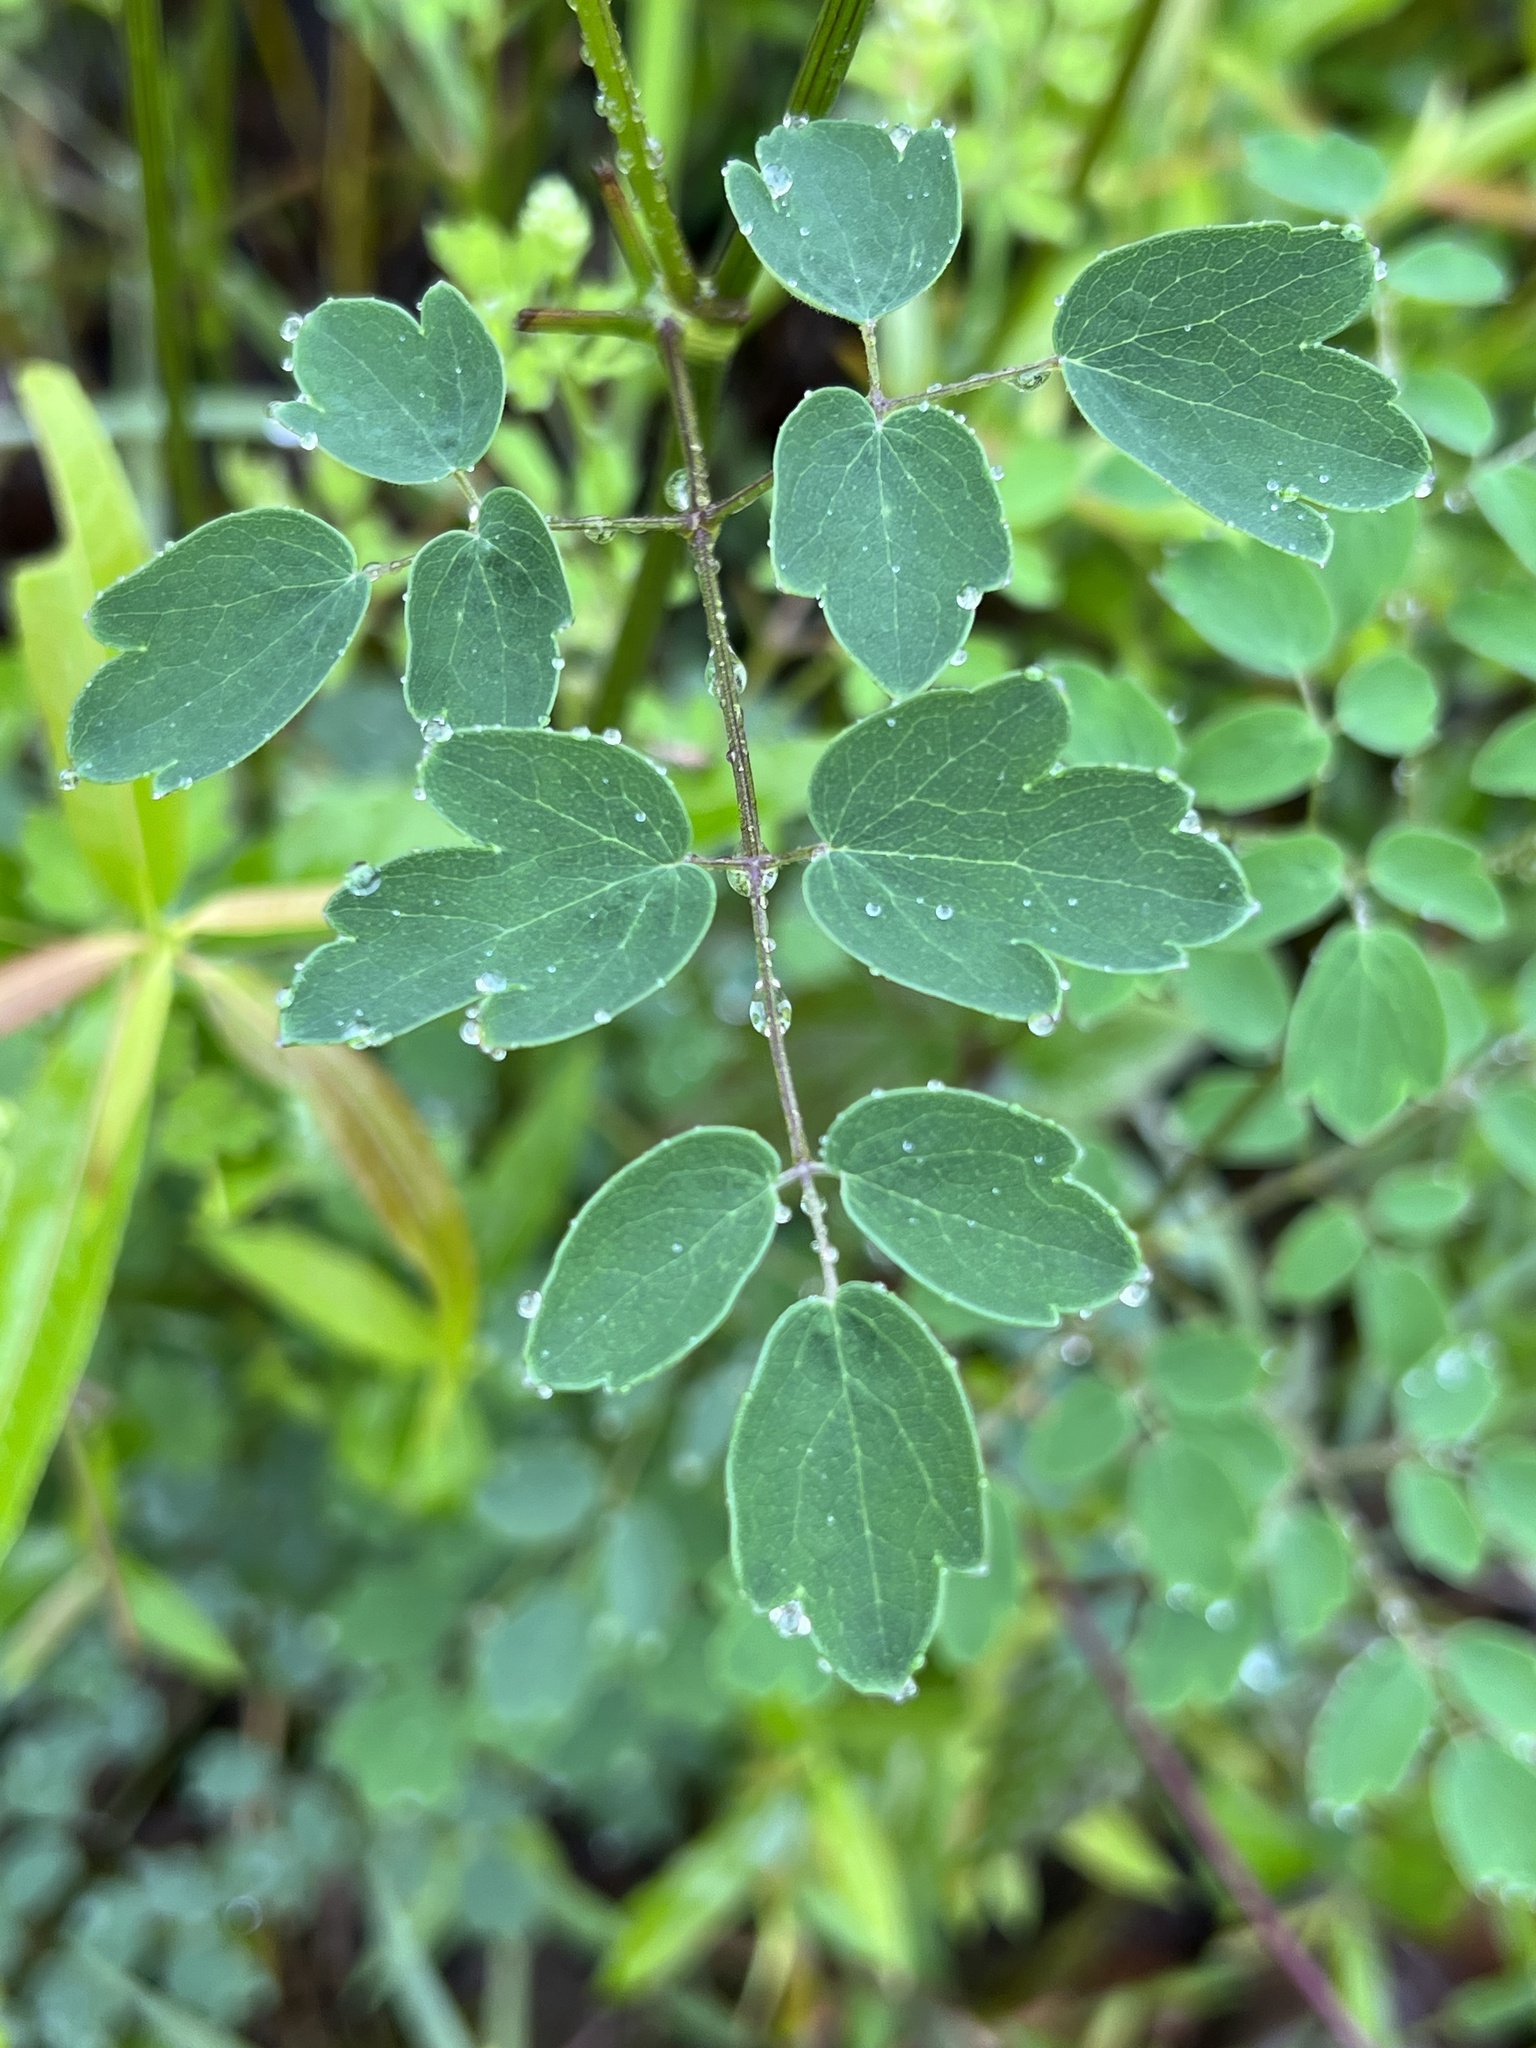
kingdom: Plantae
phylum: Tracheophyta
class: Magnoliopsida
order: Ranunculales
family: Ranunculaceae
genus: Thalictrum
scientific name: Thalictrum pubescens
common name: King-of-the-meadow
